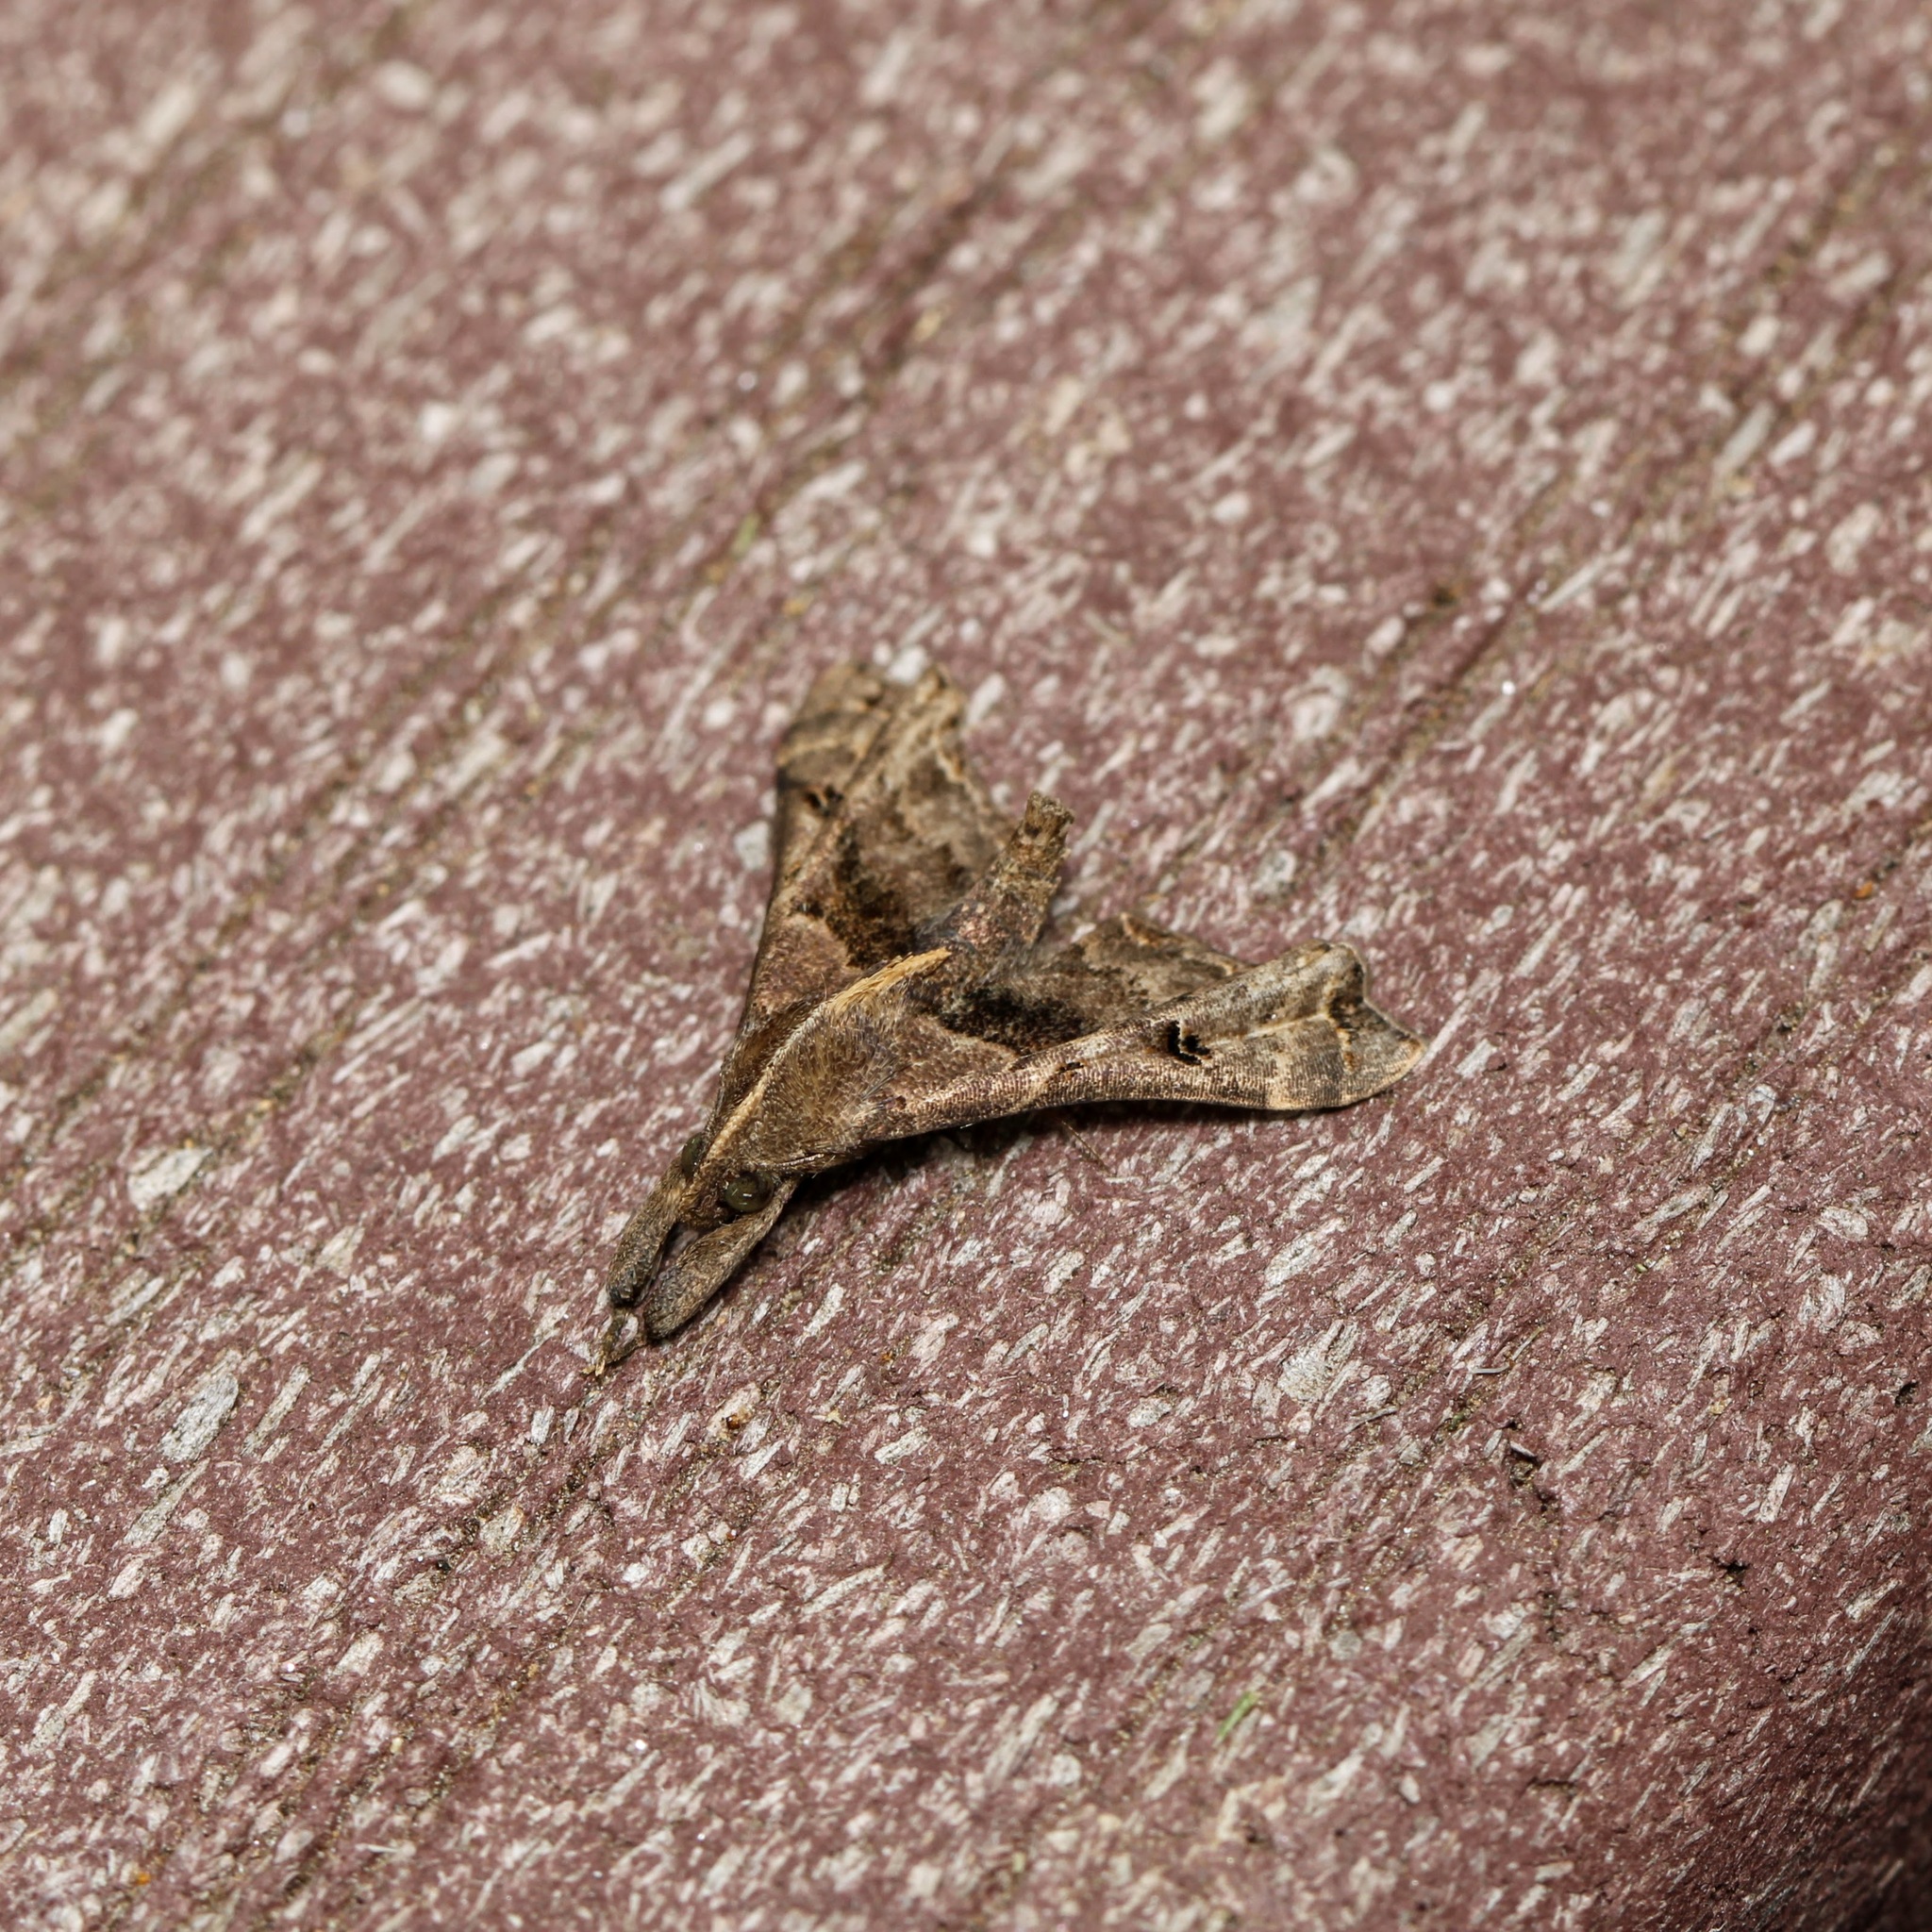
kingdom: Animalia
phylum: Arthropoda
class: Insecta
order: Lepidoptera
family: Erebidae
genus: Palthis
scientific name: Palthis asopialis
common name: Faint-spotted palthis moth
